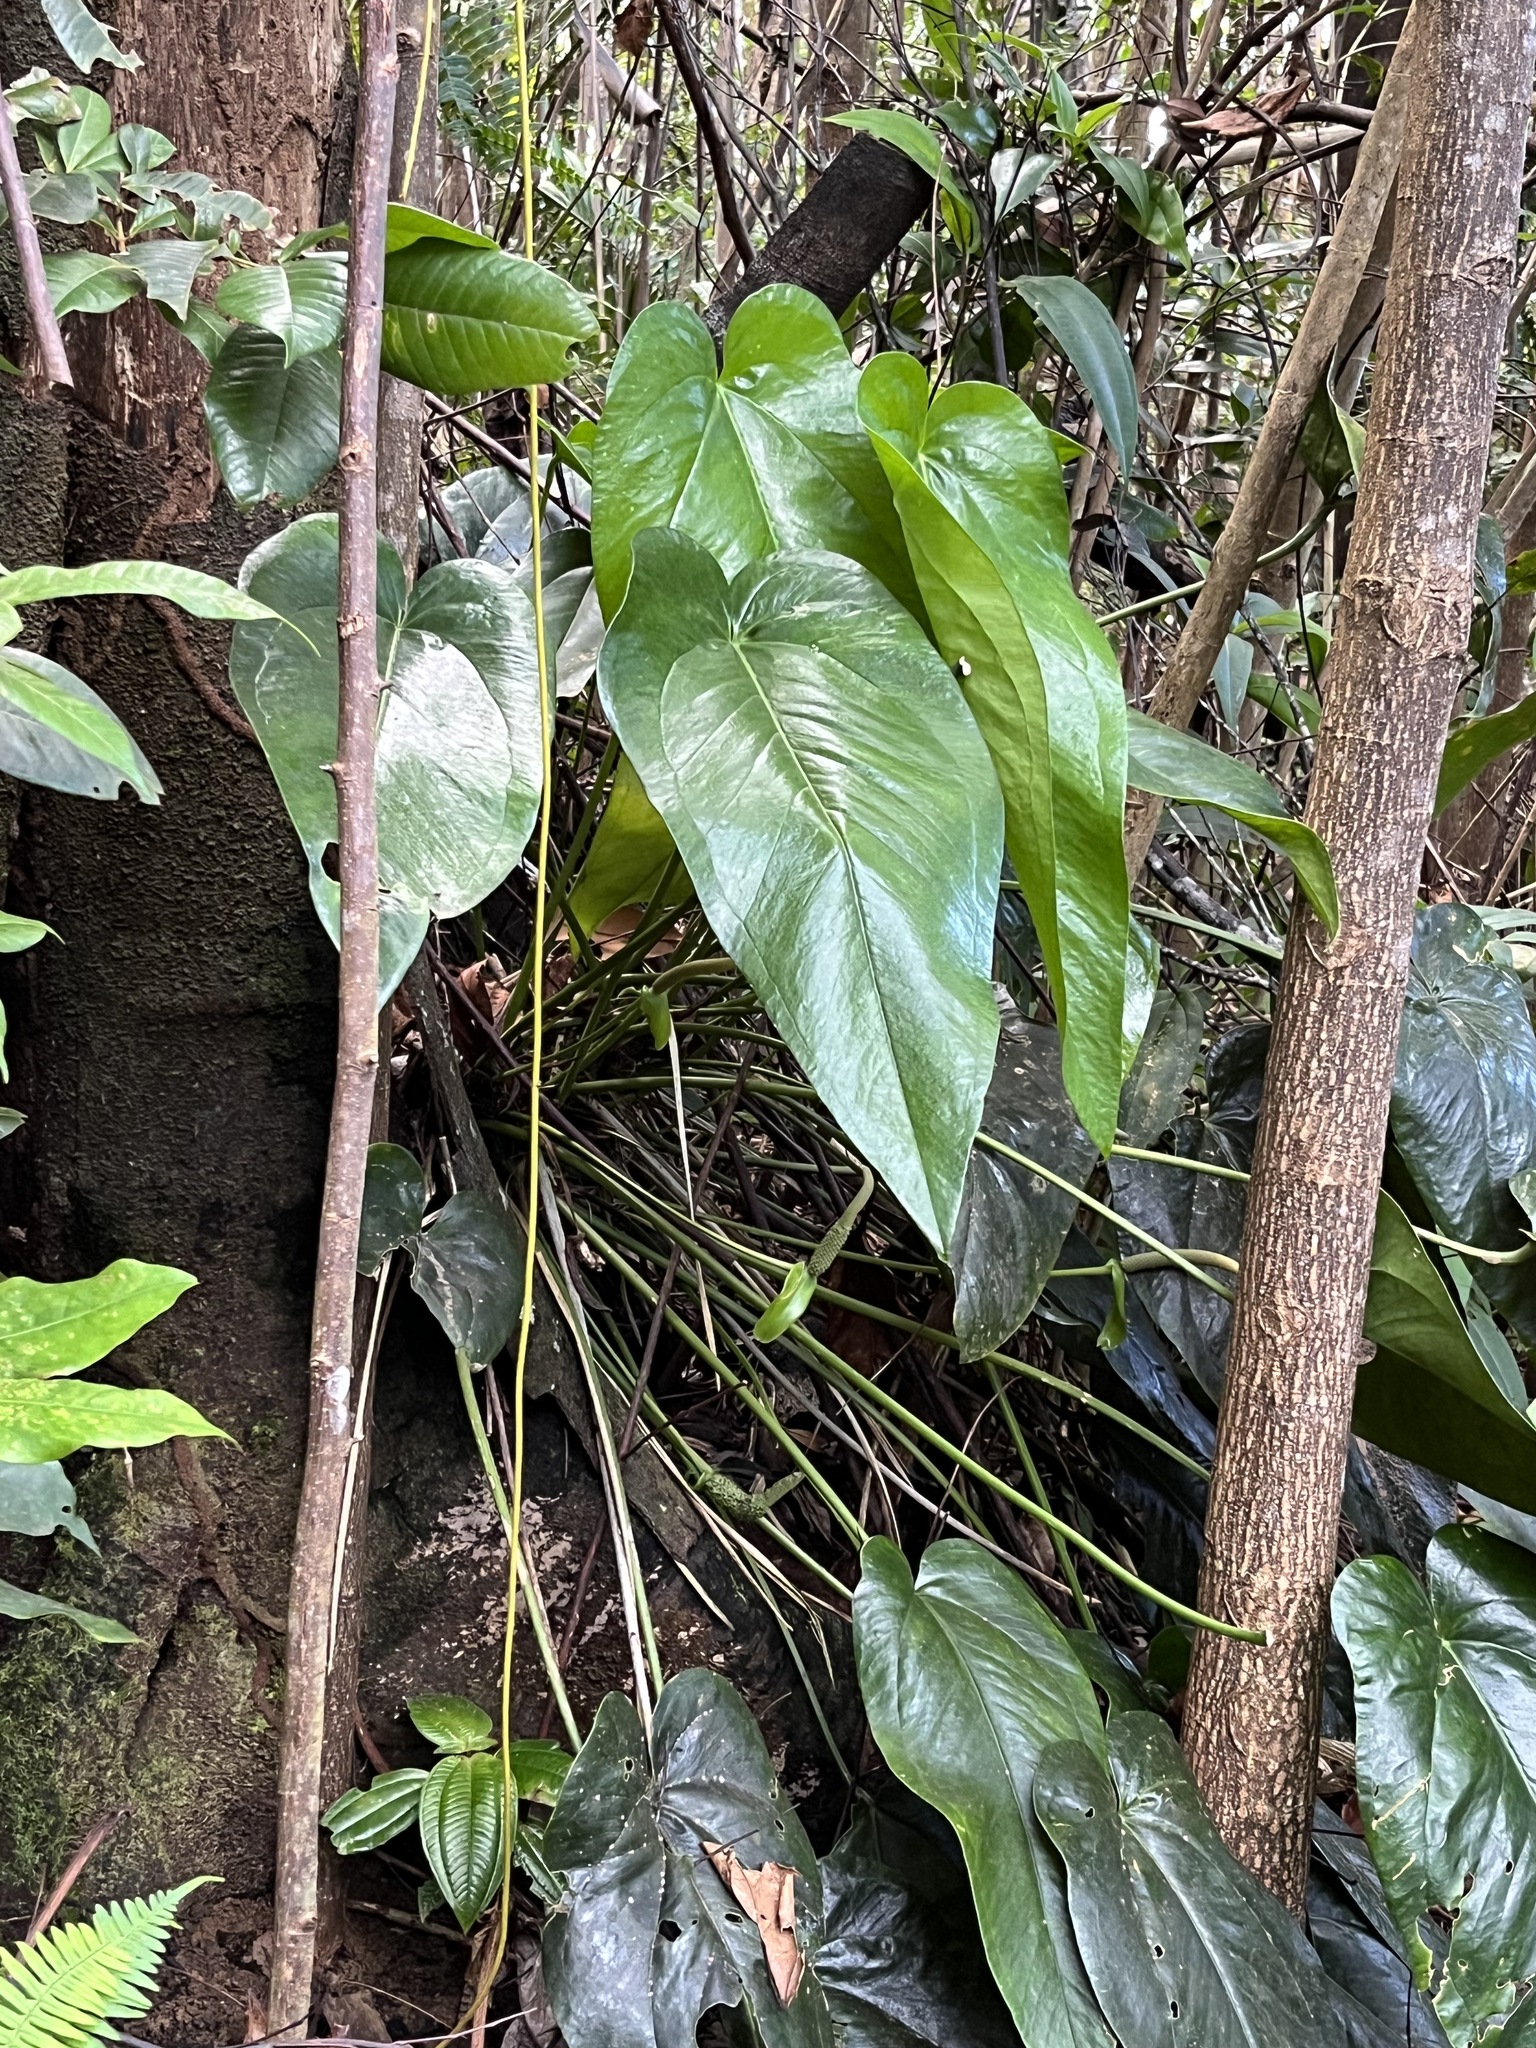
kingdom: Plantae
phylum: Tracheophyta
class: Liliopsida
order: Alismatales
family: Araceae
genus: Anthurium
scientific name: Anthurium dominicense
